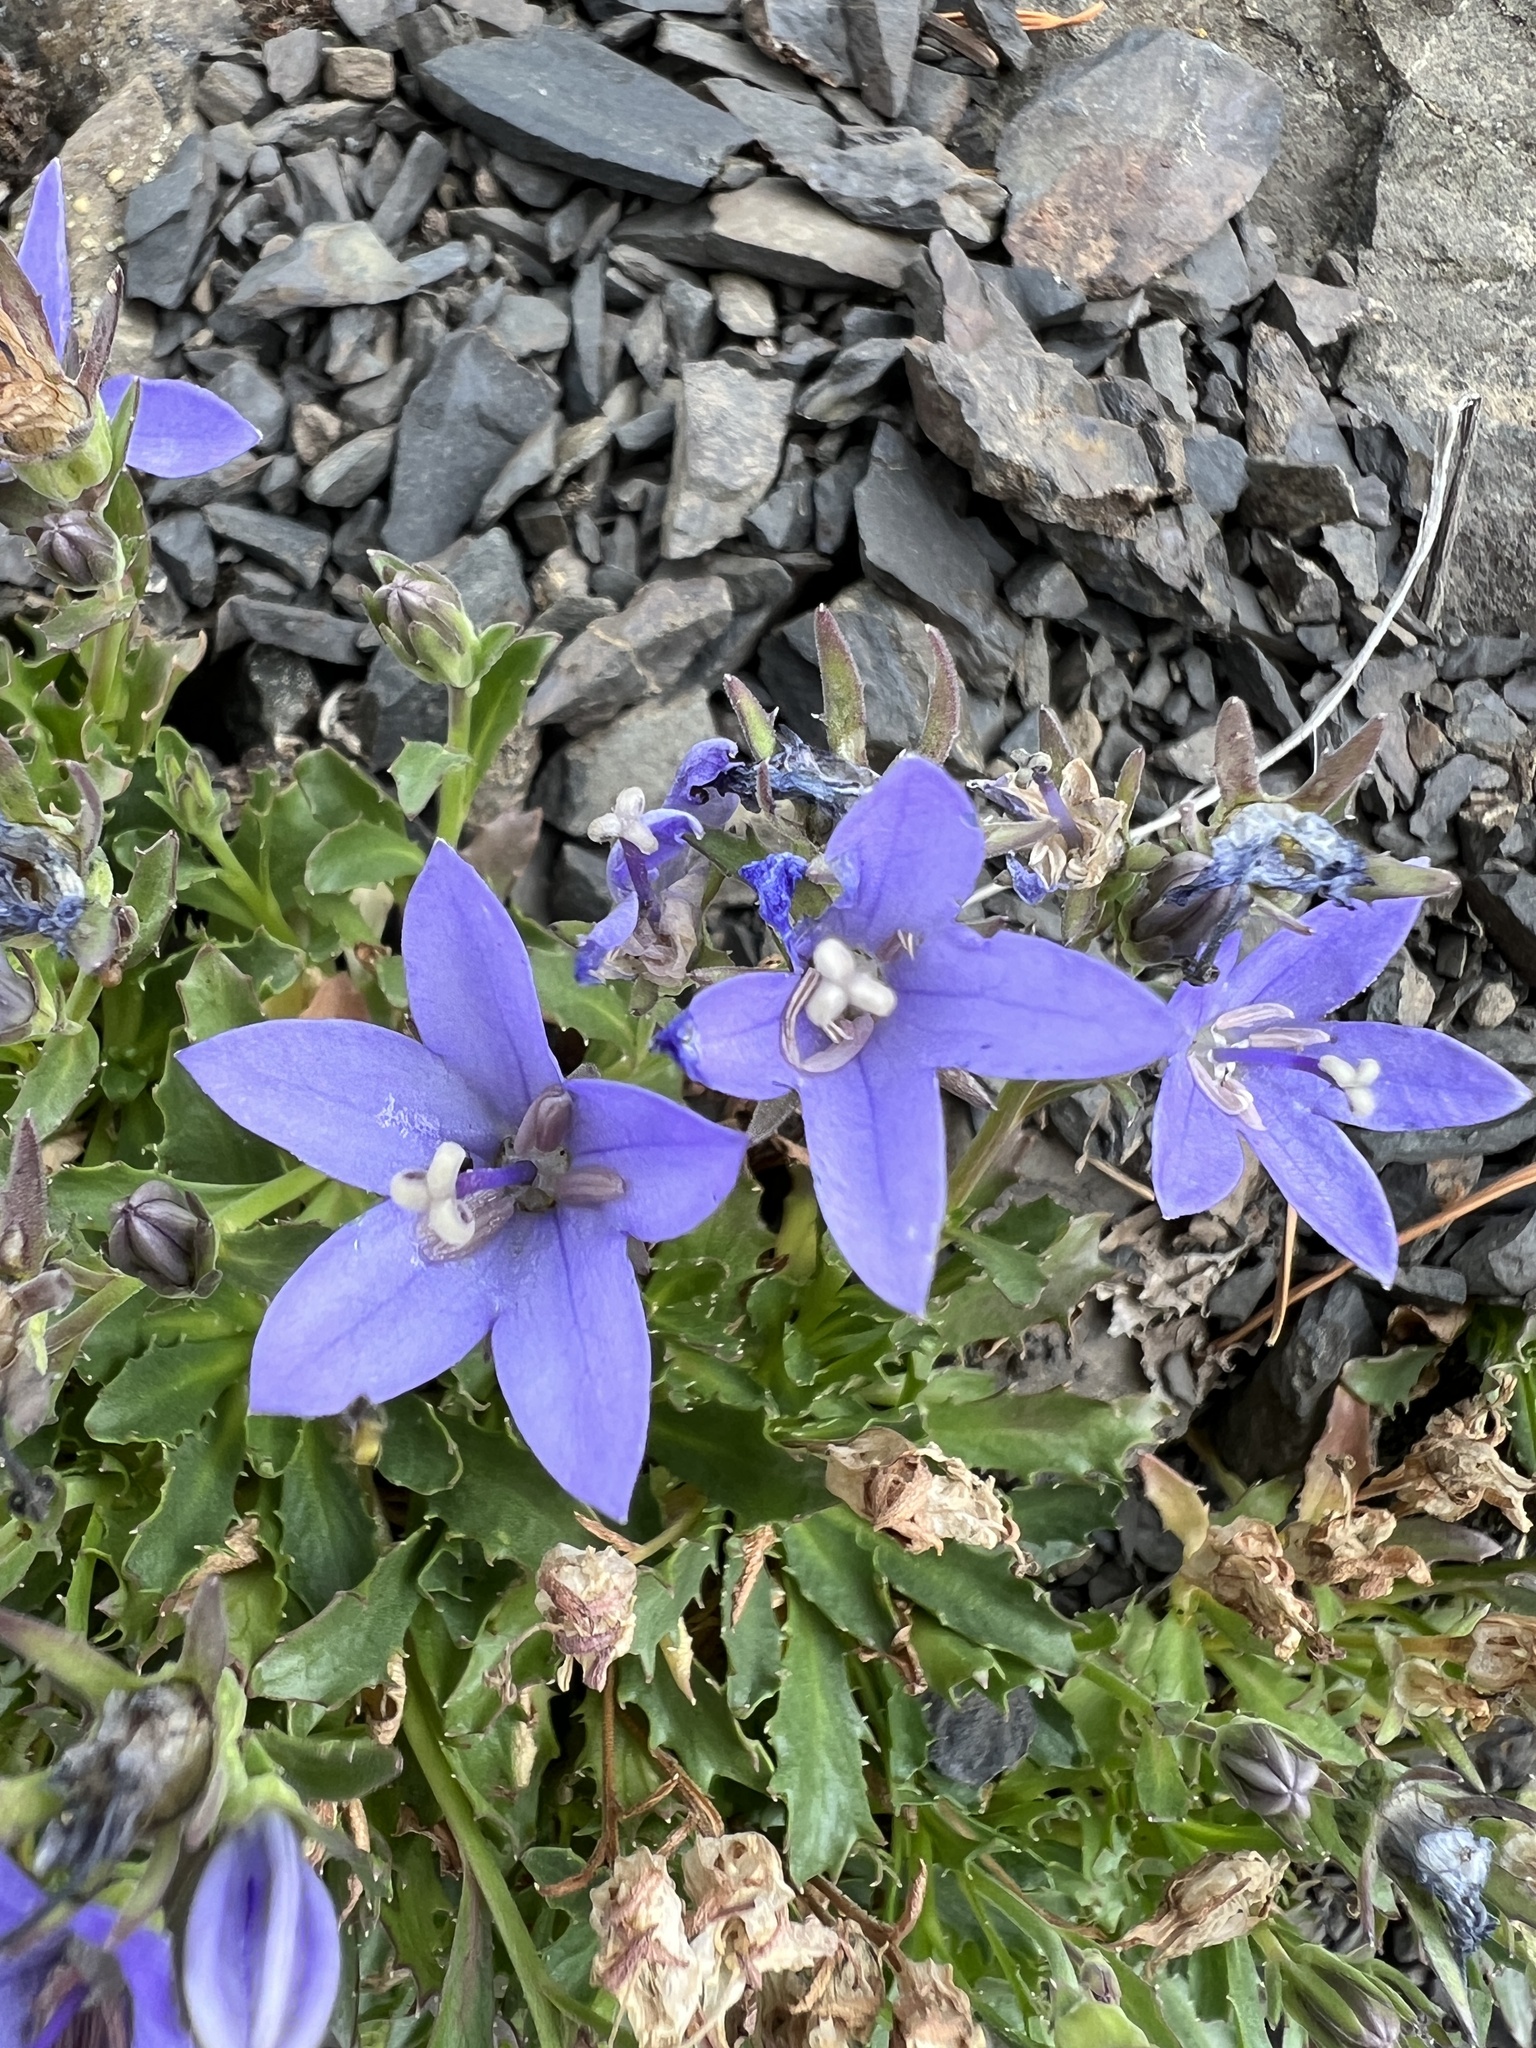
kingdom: Plantae
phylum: Tracheophyta
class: Magnoliopsida
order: Asterales
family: Campanulaceae
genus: Campanula
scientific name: Campanula piperi
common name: Olympic bellflower
